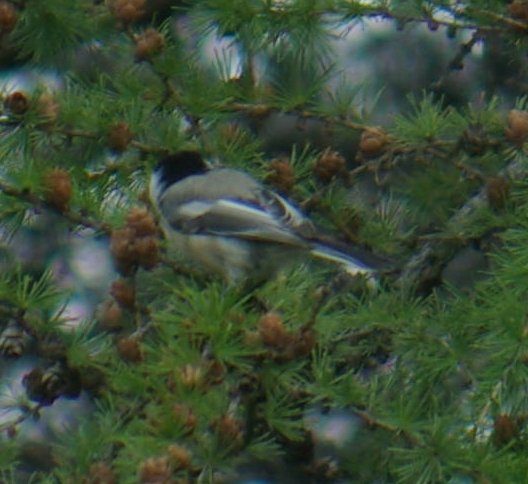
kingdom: Animalia
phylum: Chordata
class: Aves
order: Passeriformes
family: Paridae
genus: Poecile
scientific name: Poecile atricapillus
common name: Black-capped chickadee
